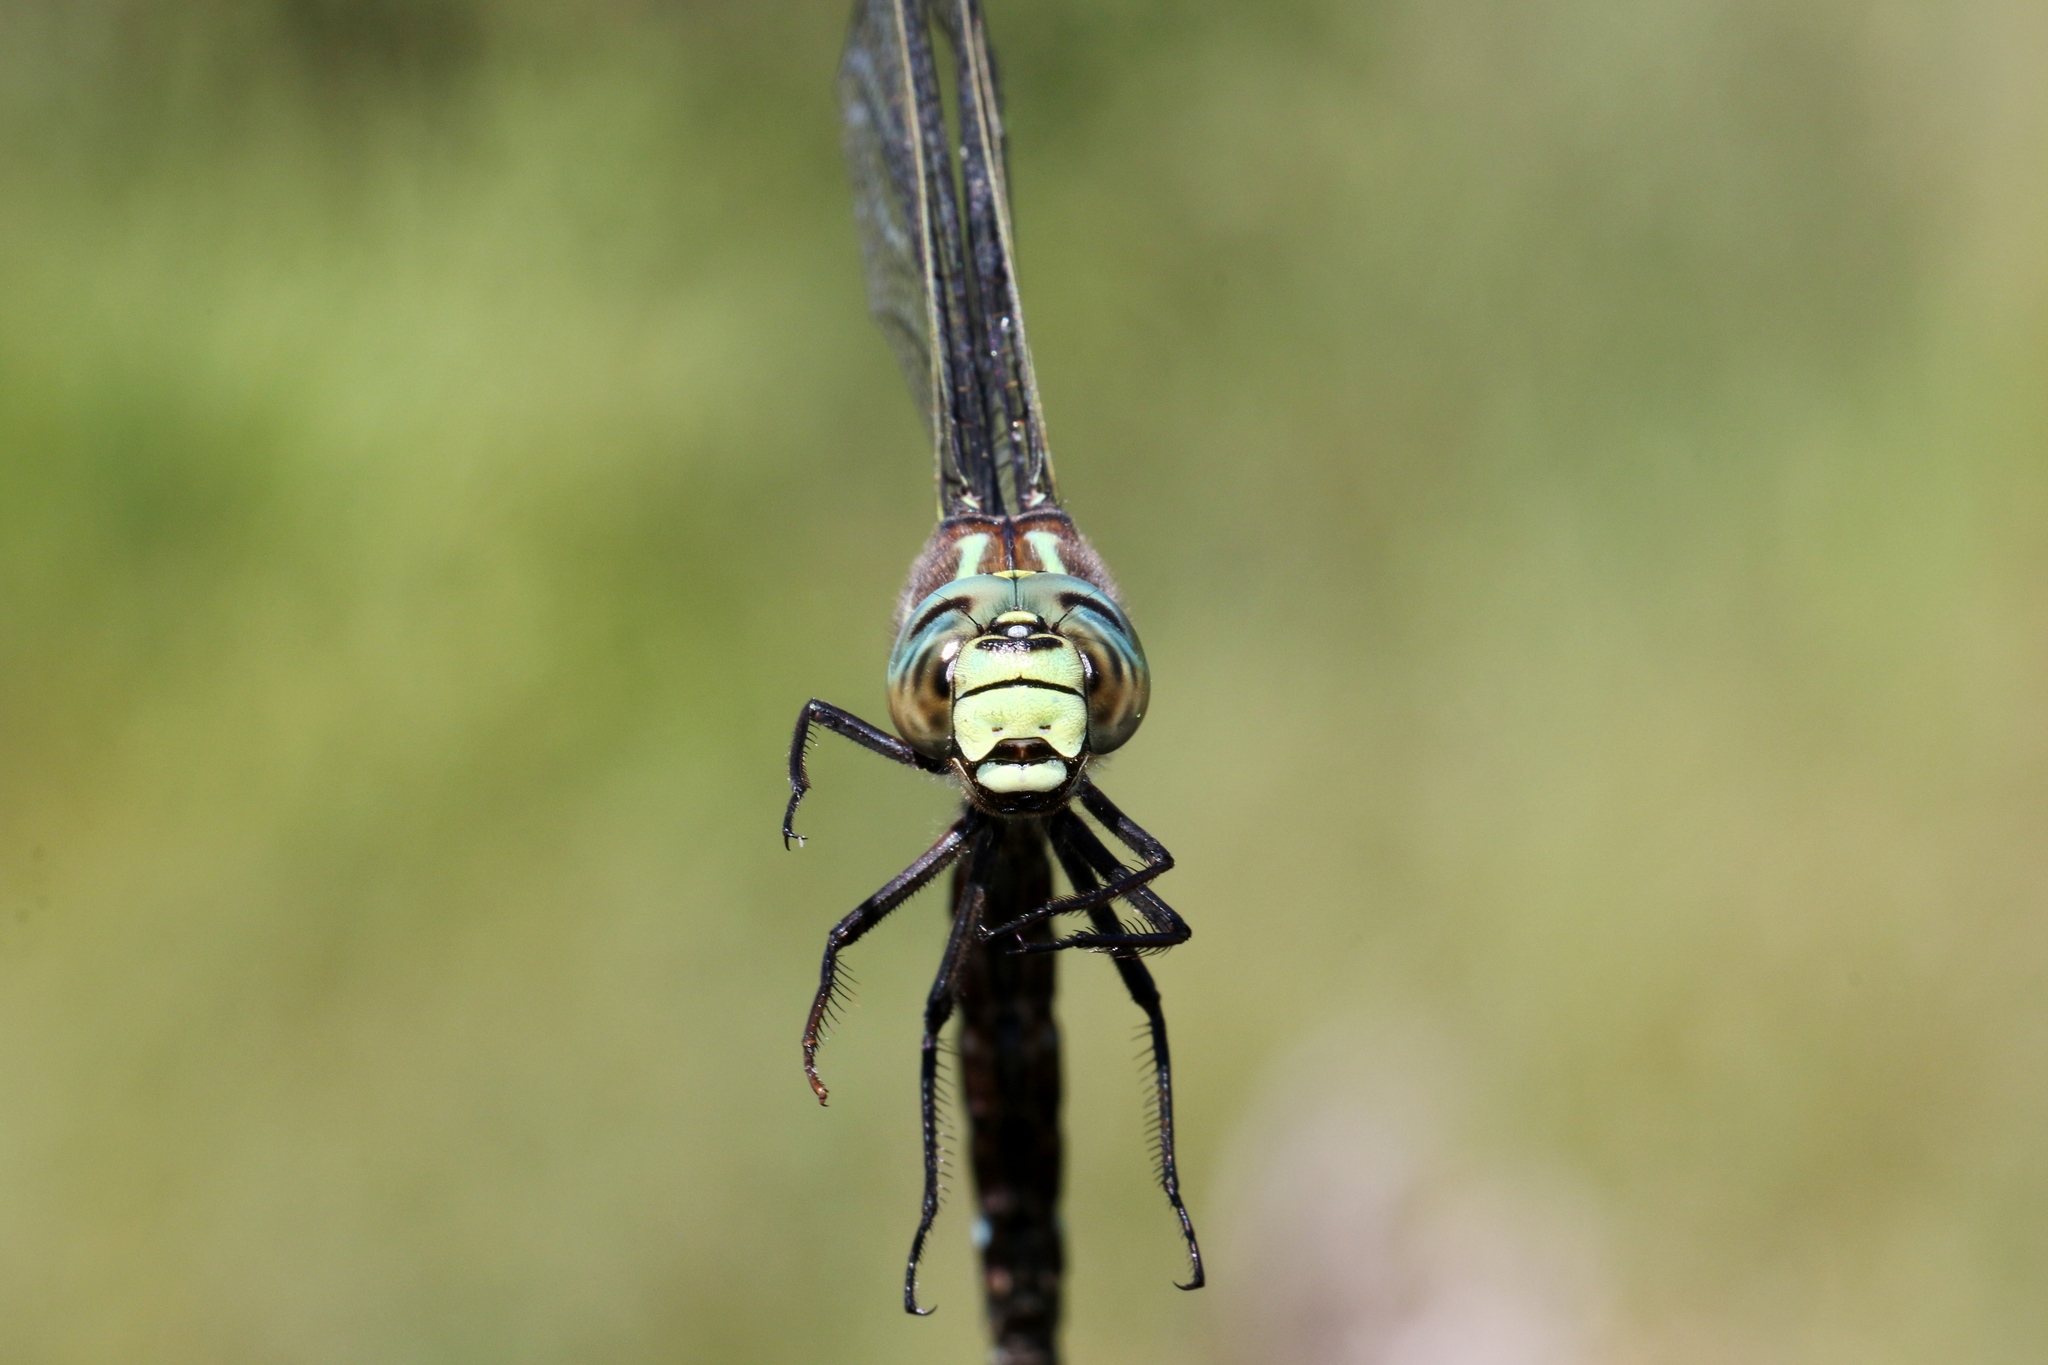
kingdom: Animalia
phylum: Arthropoda
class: Insecta
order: Odonata
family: Aeshnidae
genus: Aeshna
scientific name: Aeshna juncea
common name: Moorland hawker
